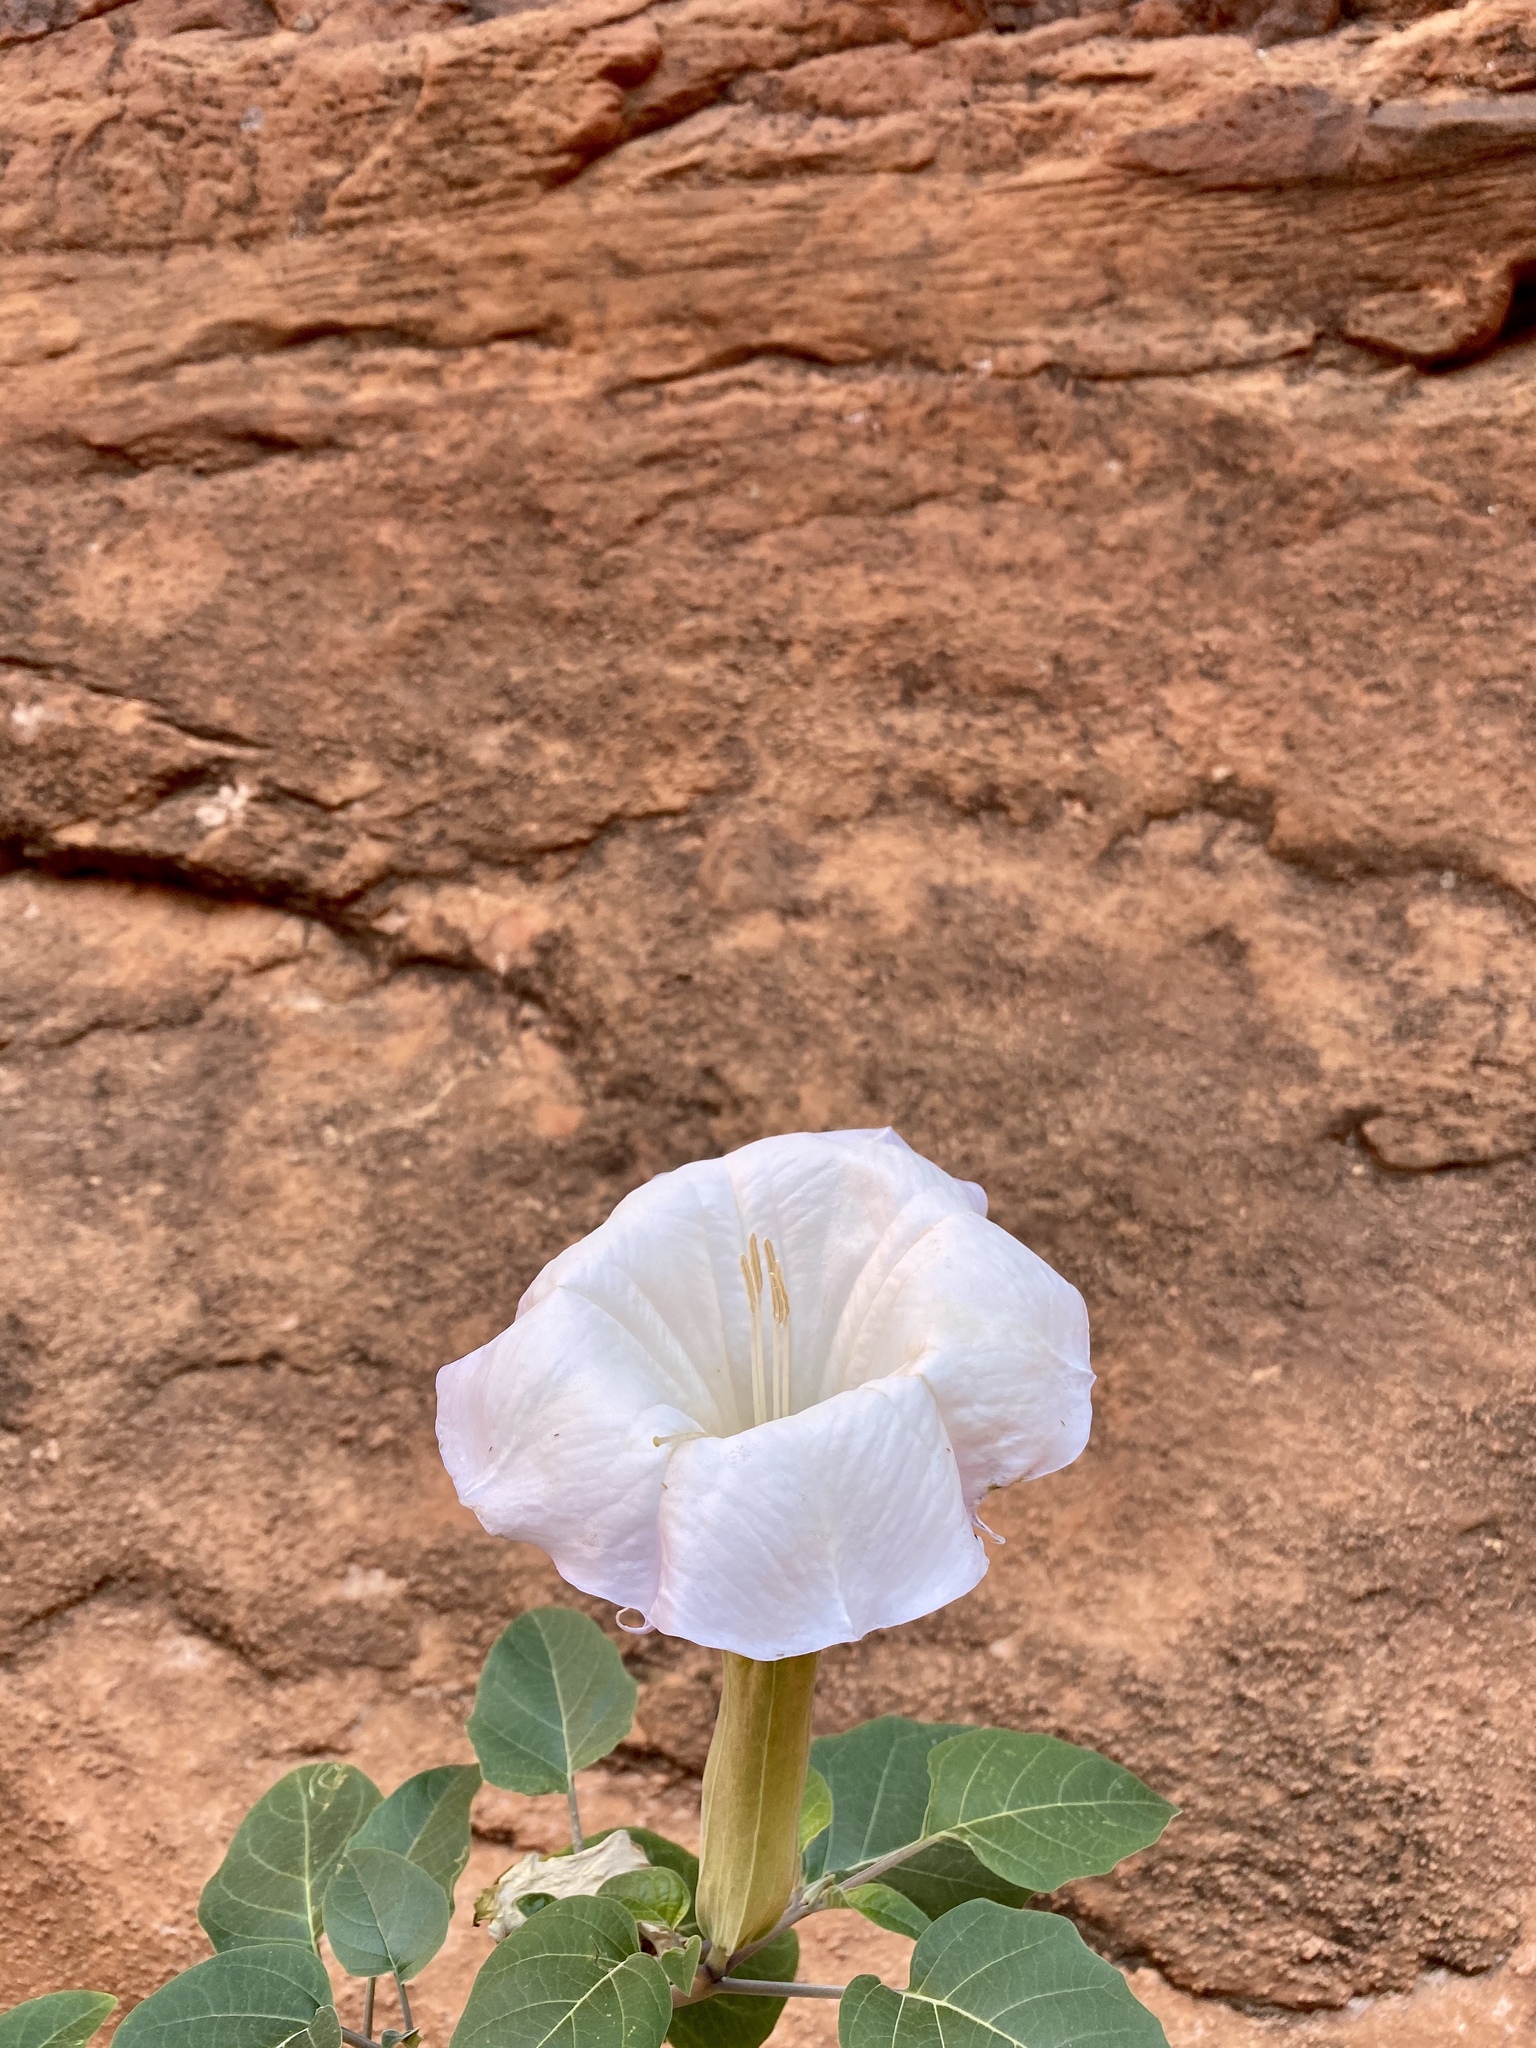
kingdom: Plantae
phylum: Tracheophyta
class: Magnoliopsida
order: Solanales
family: Solanaceae
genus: Datura
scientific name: Datura wrightii
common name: Sacred thorn-apple
